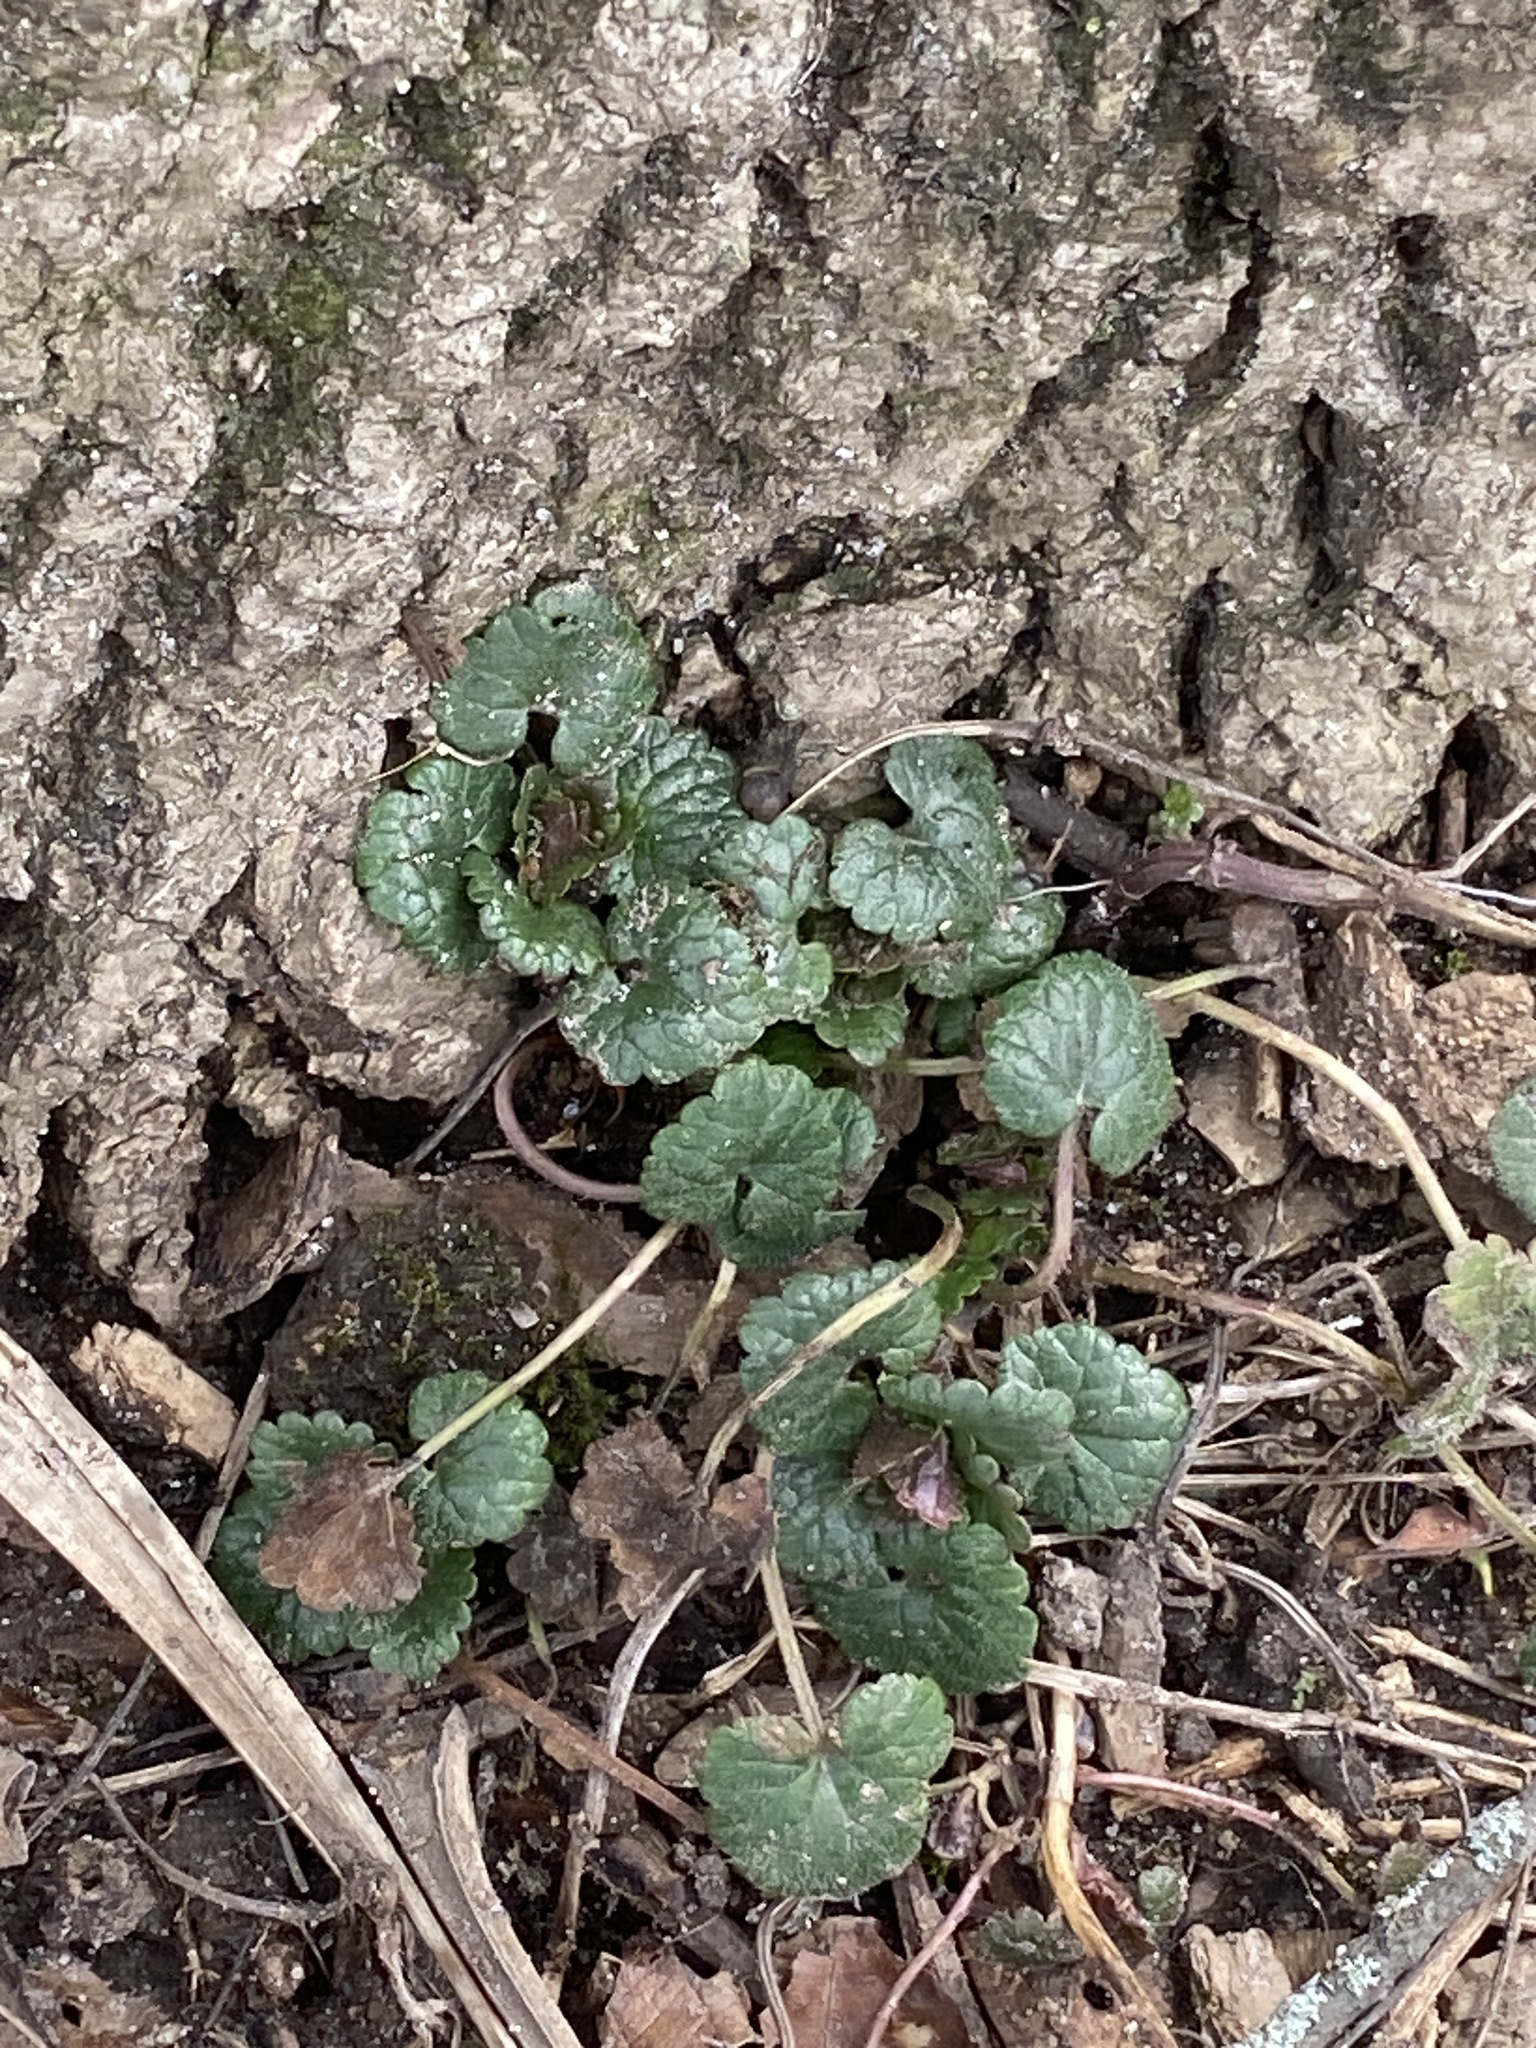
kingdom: Plantae
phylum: Tracheophyta
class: Magnoliopsida
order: Lamiales
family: Lamiaceae
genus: Glechoma
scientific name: Glechoma hederacea
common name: Ground ivy
